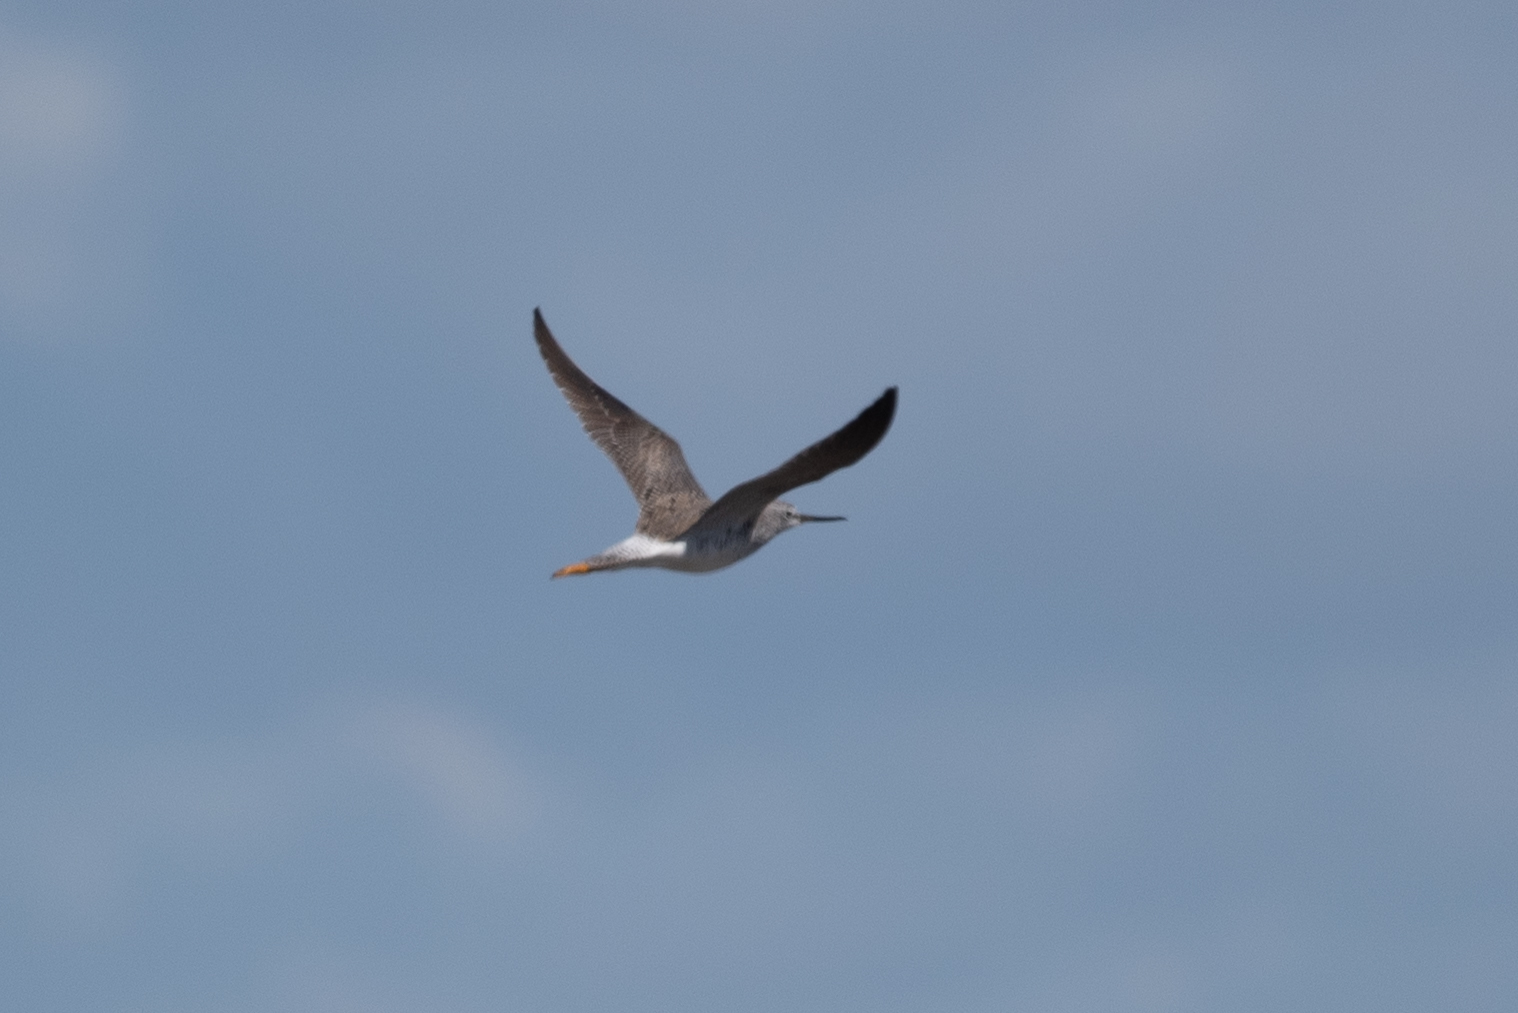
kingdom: Animalia
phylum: Chordata
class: Aves
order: Charadriiformes
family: Scolopacidae
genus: Tringa
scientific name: Tringa melanoleuca
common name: Greater yellowlegs
